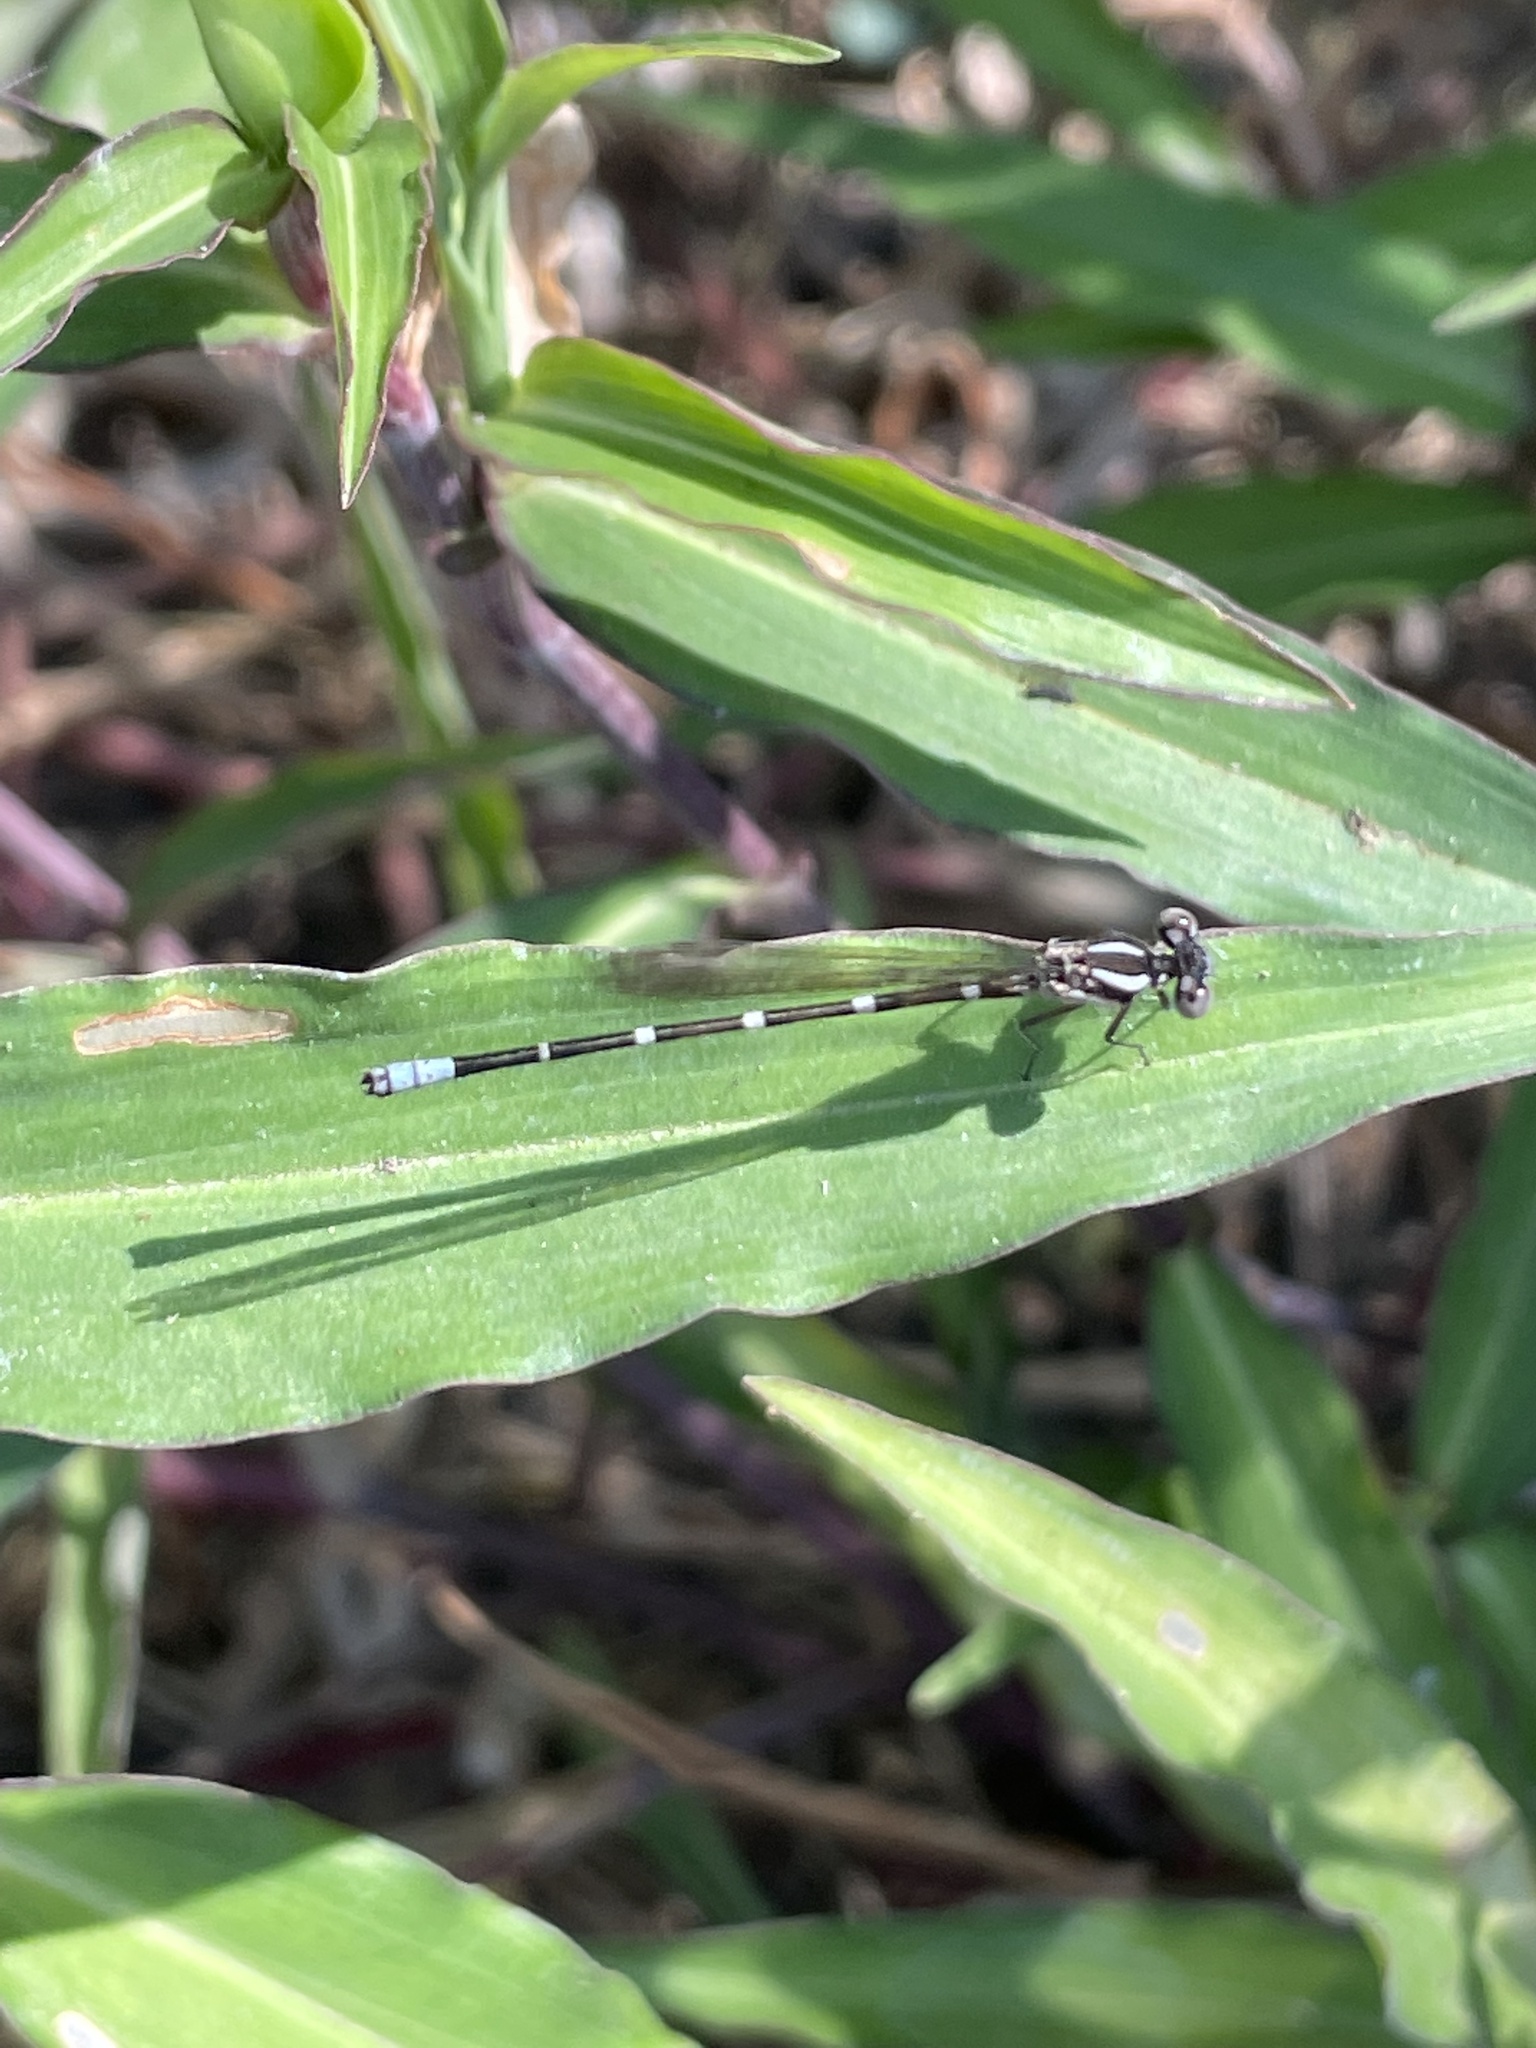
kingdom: Animalia
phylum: Arthropoda
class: Insecta
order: Odonata
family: Coenagrionidae
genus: Argia
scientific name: Argia sedula
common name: Blue-ringed dancer
